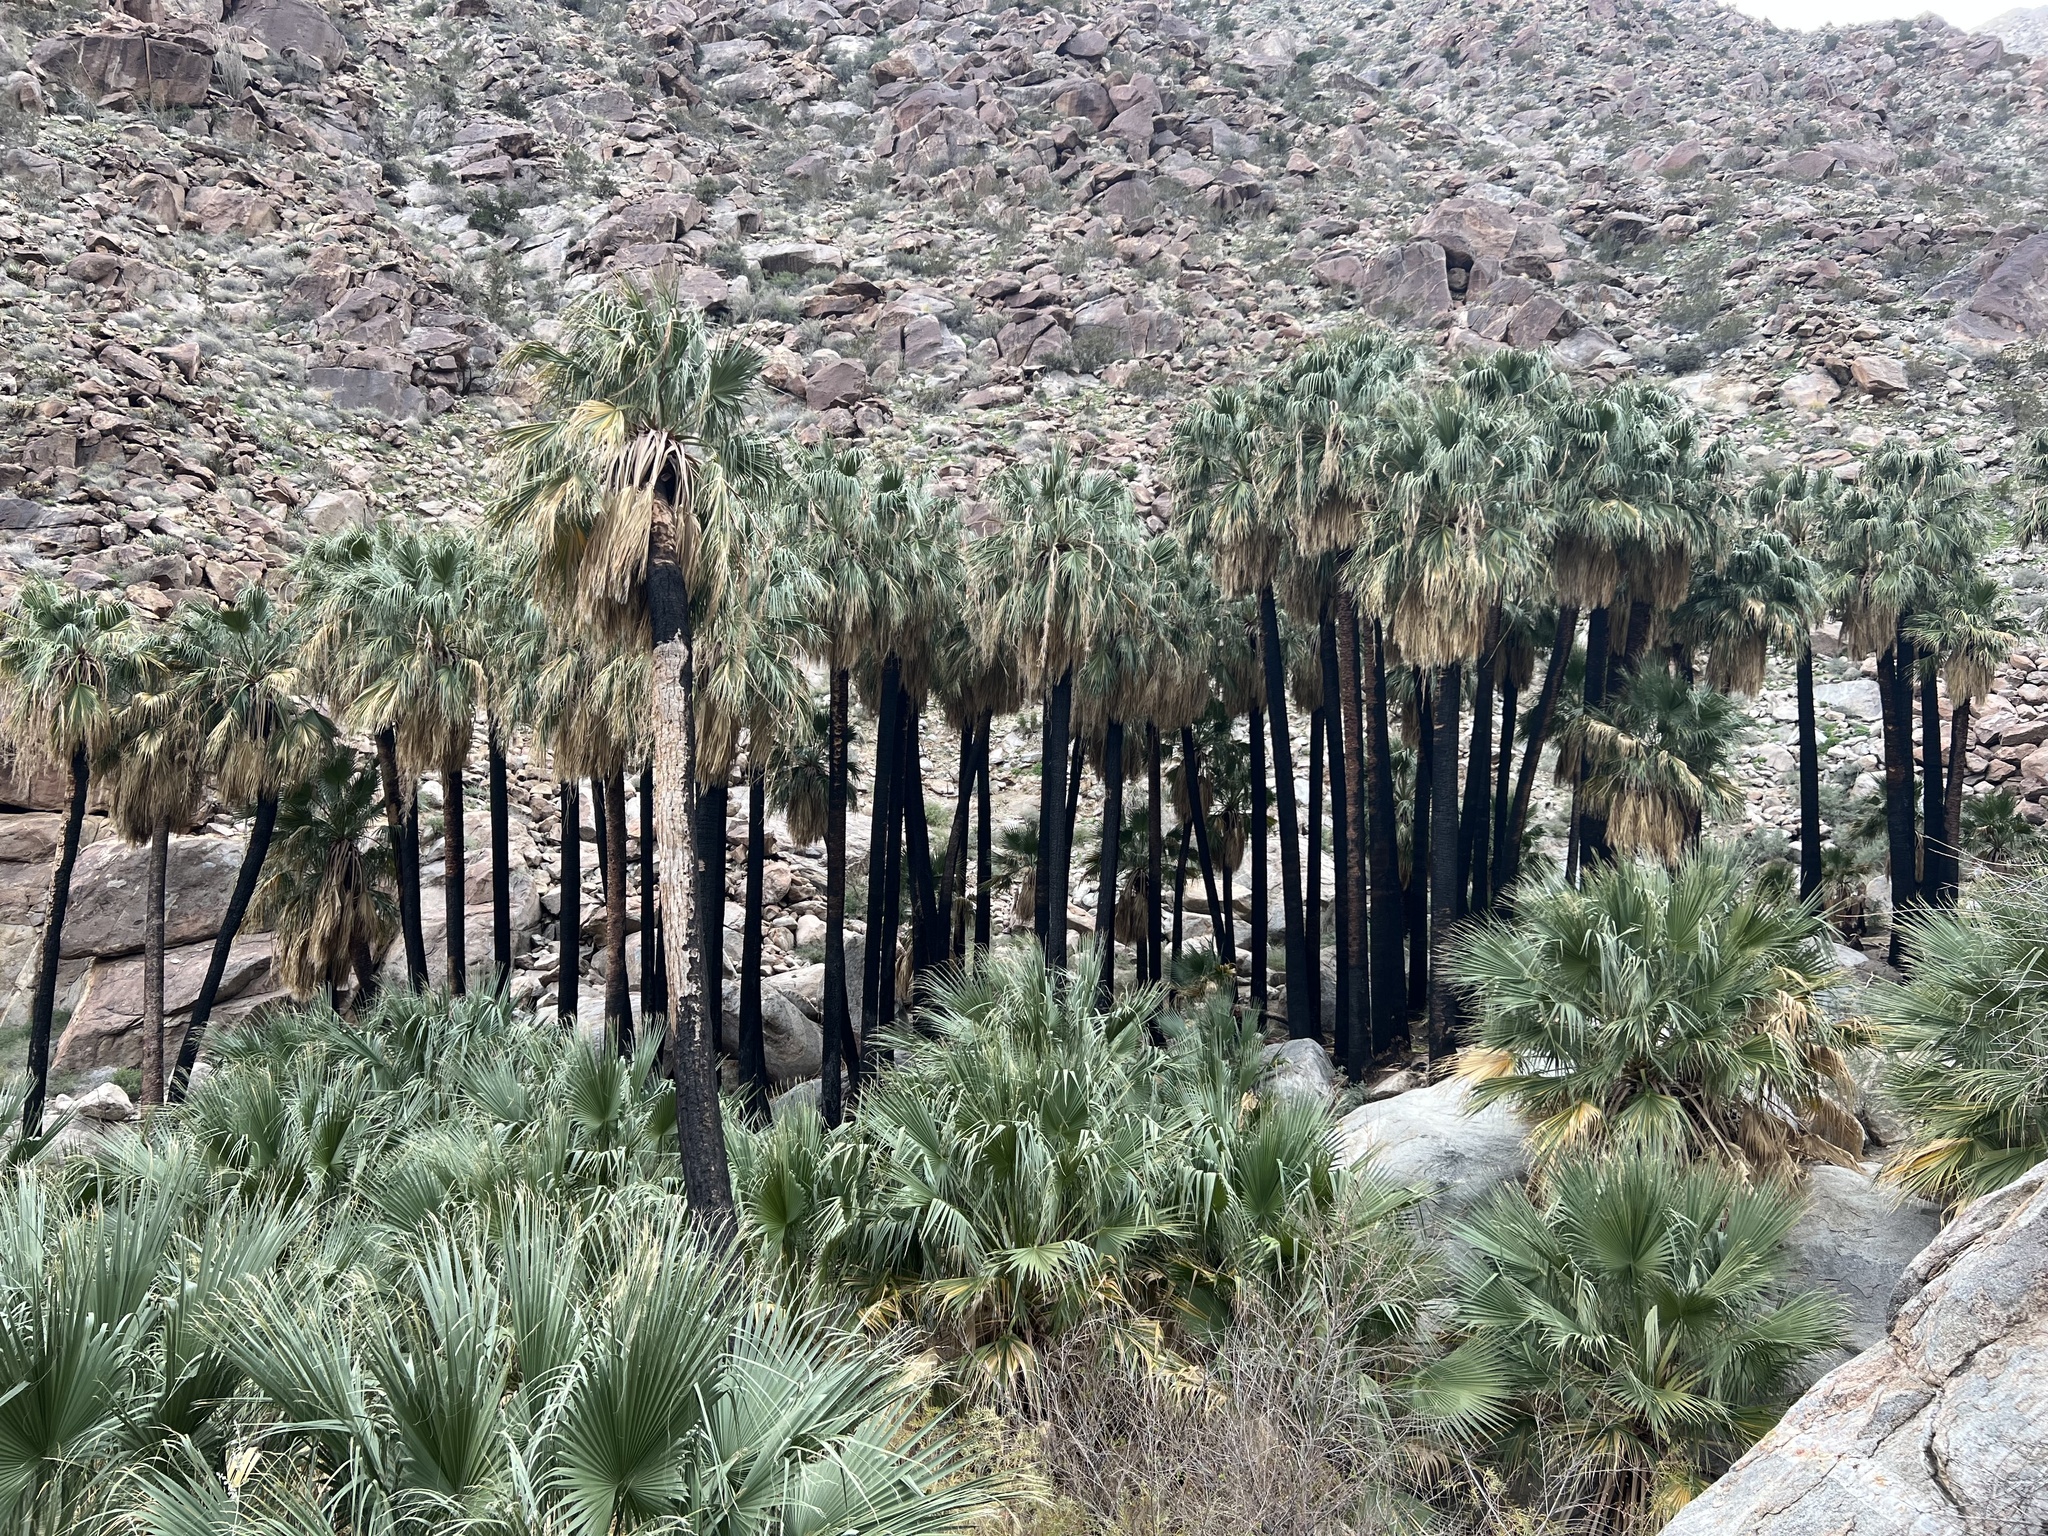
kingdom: Plantae
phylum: Tracheophyta
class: Liliopsida
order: Arecales
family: Arecaceae
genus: Washingtonia
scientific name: Washingtonia filifera
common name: California fan palm
